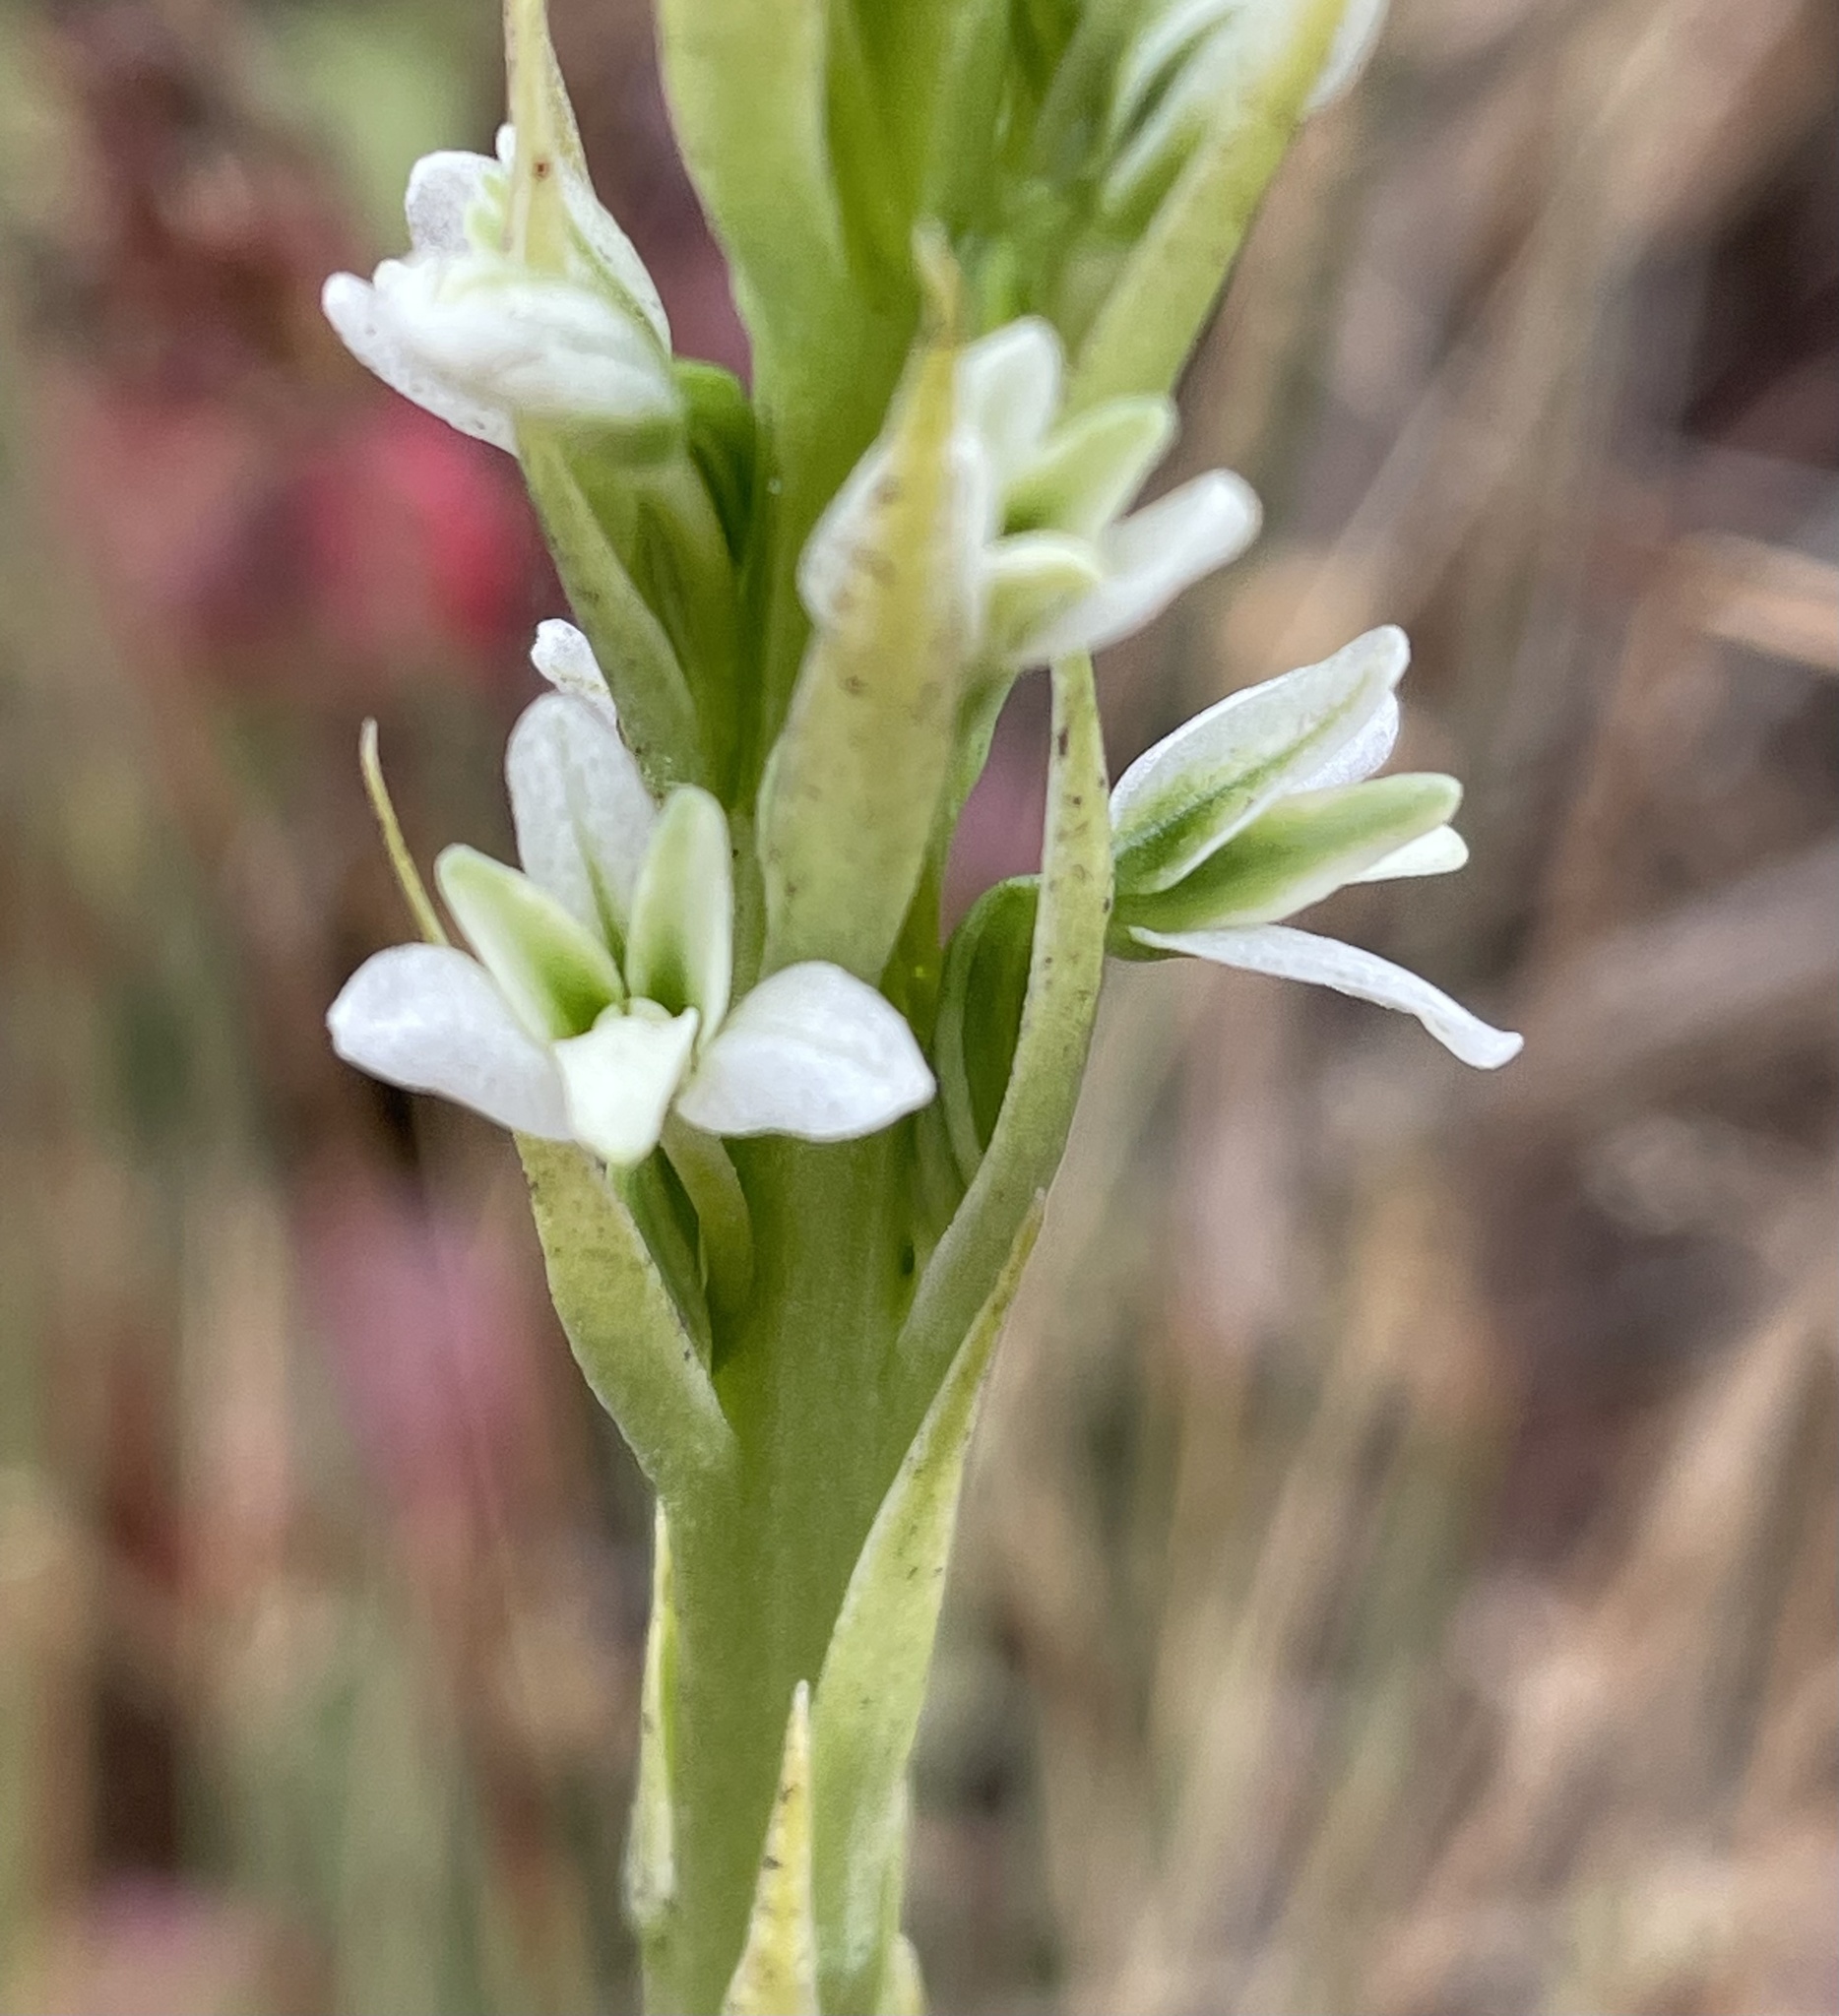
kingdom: Plantae
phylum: Tracheophyta
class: Liliopsida
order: Asparagales
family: Orchidaceae
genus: Platanthera
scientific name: Platanthera elegans
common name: Coast piperia
